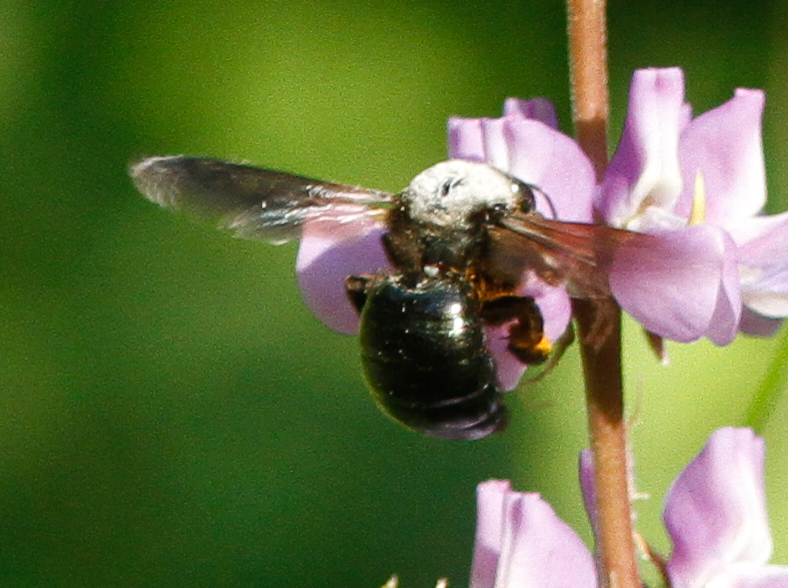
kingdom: Animalia
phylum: Arthropoda
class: Insecta
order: Hymenoptera
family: Apidae
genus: Xylocopa
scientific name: Xylocopa californica
